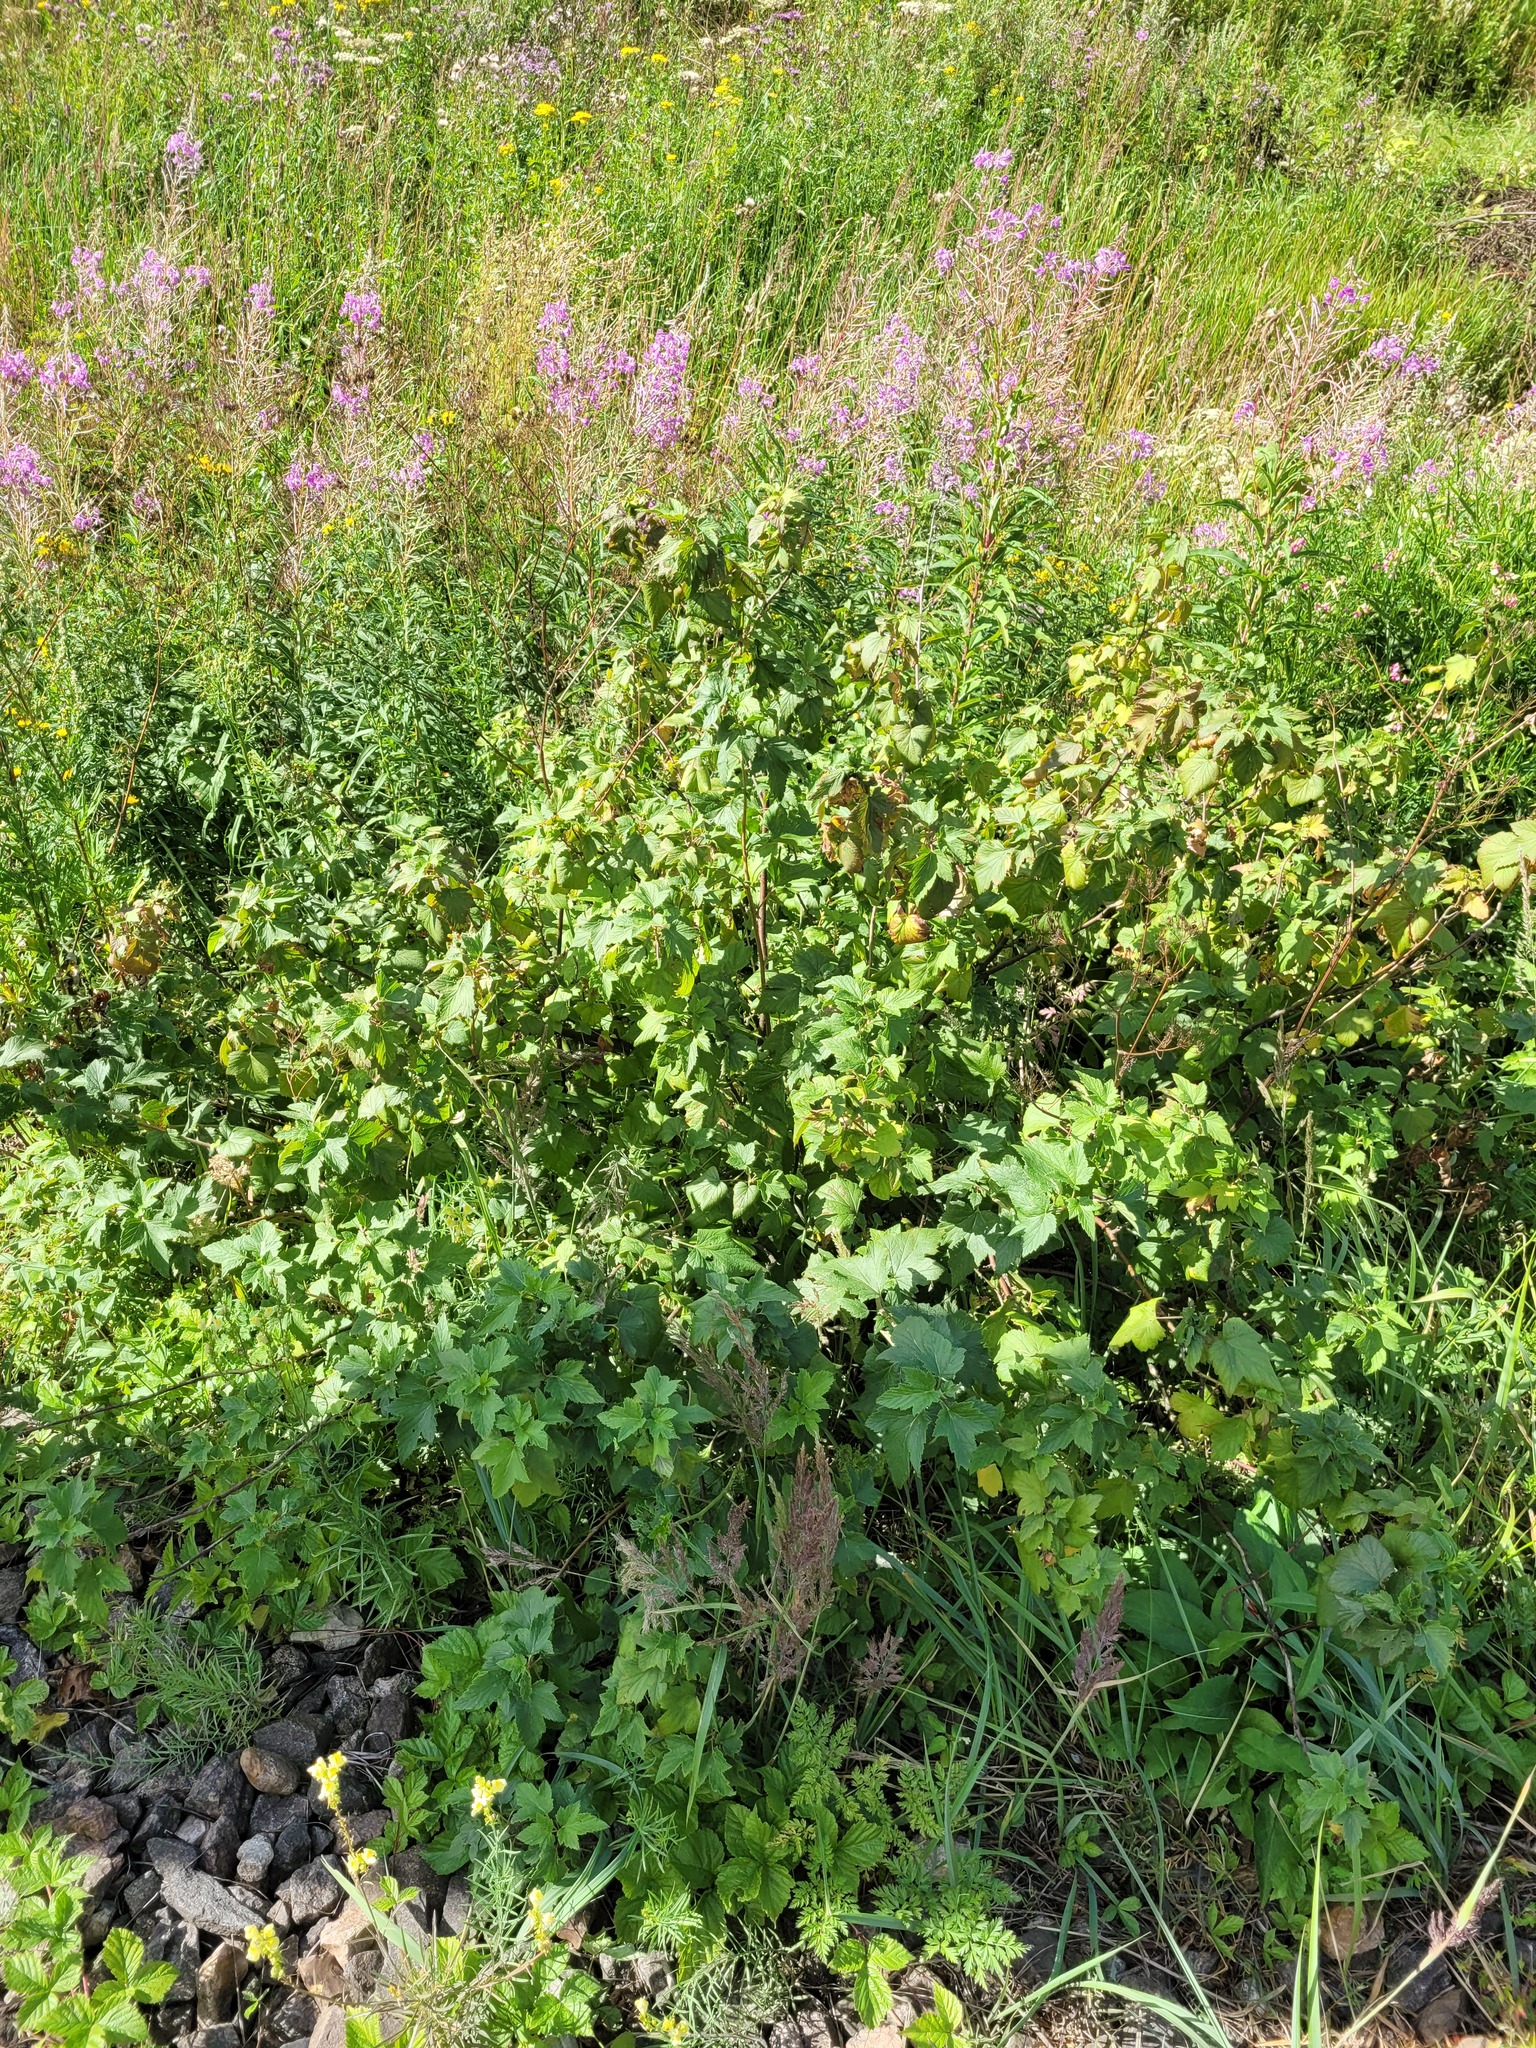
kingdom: Plantae
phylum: Tracheophyta
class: Magnoliopsida
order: Saxifragales
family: Grossulariaceae
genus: Ribes
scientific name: Ribes nigrum
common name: Black currant
